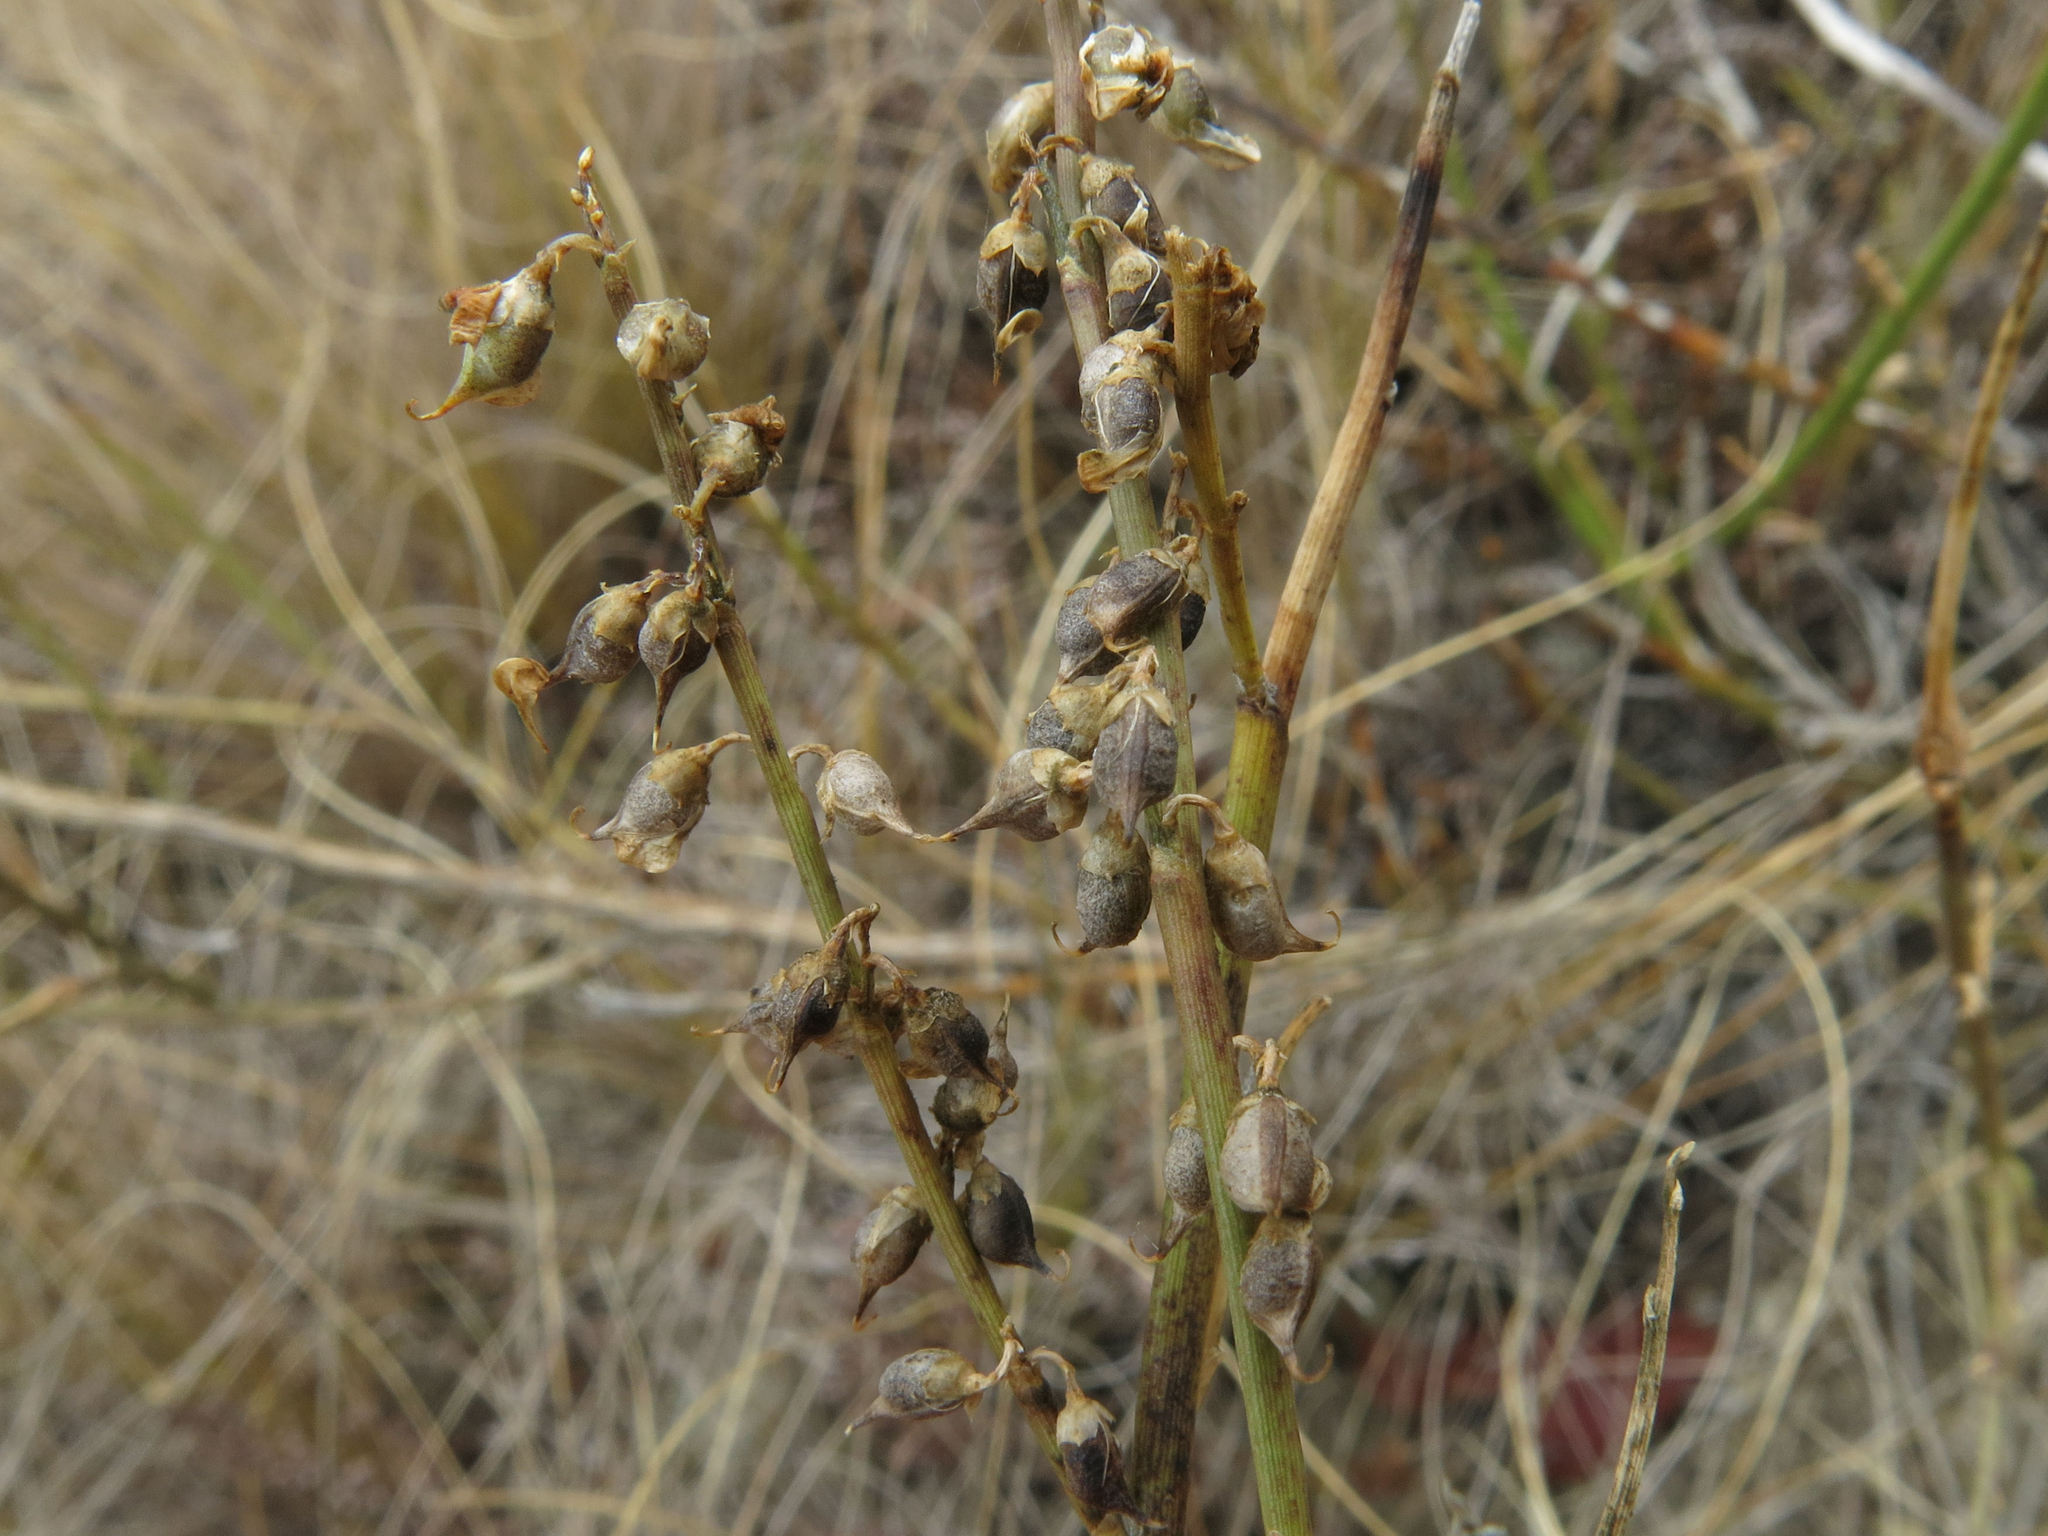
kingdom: Plantae
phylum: Tracheophyta
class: Magnoliopsida
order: Fabales
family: Fabaceae
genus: Carmichaelia
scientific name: Carmichaelia curta
